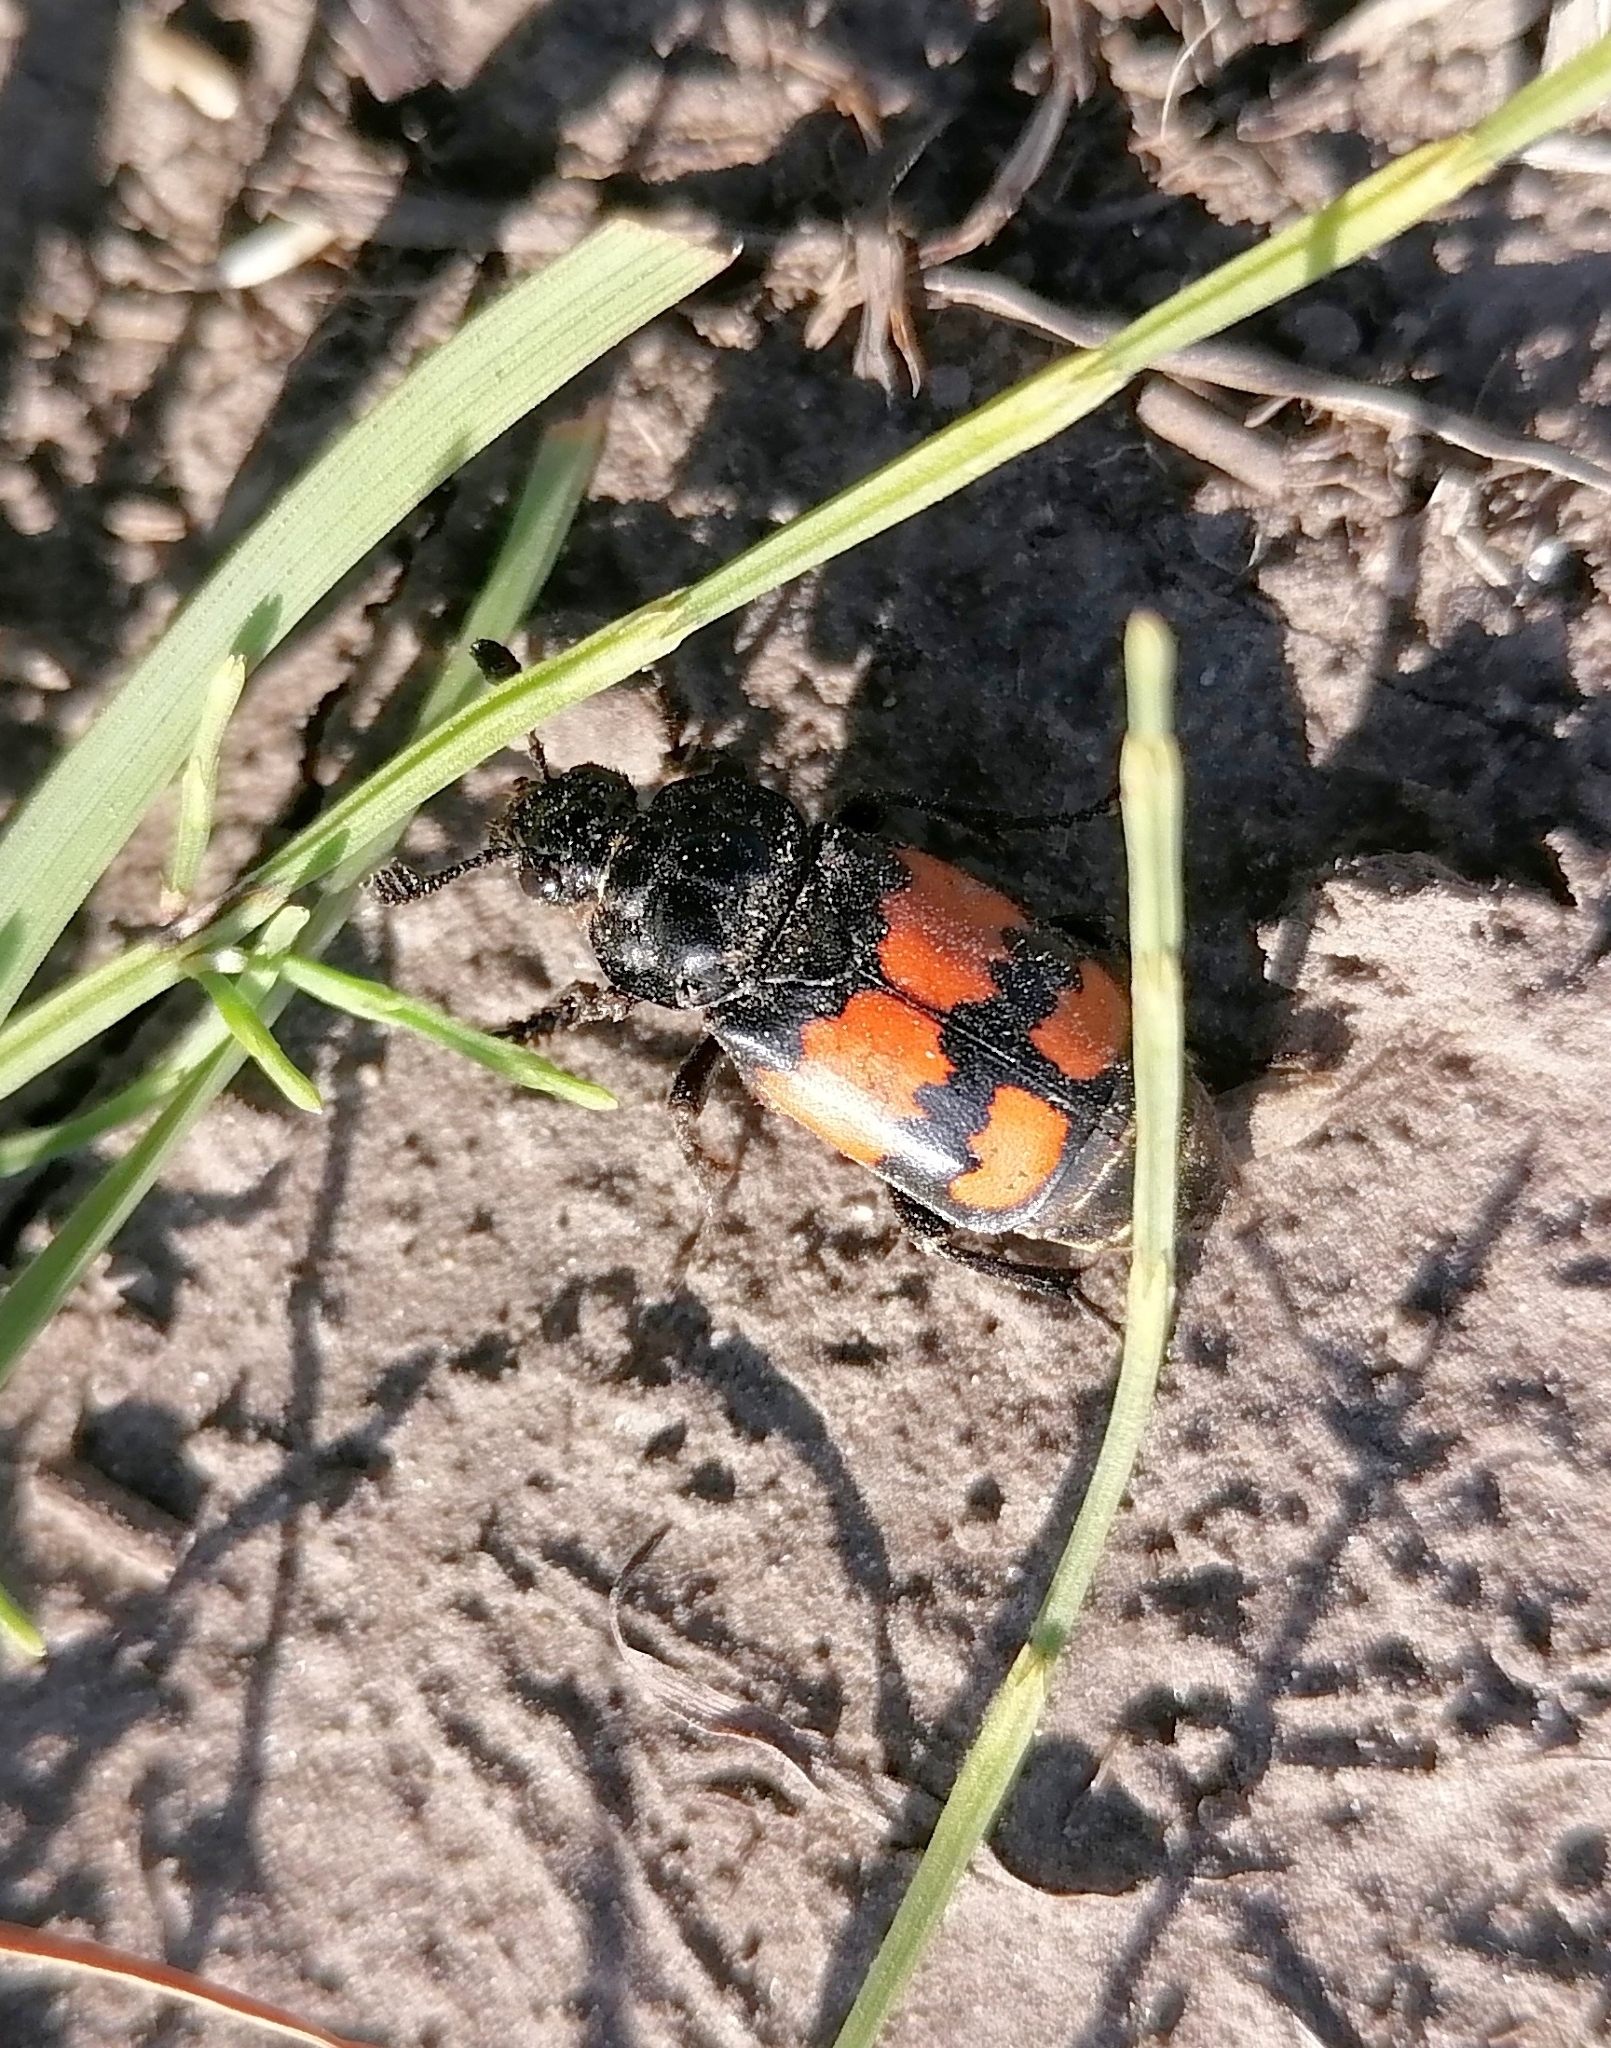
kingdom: Animalia
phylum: Arthropoda
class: Insecta
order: Coleoptera
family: Staphylinidae
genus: Nicrophorus
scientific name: Nicrophorus vespilloides
